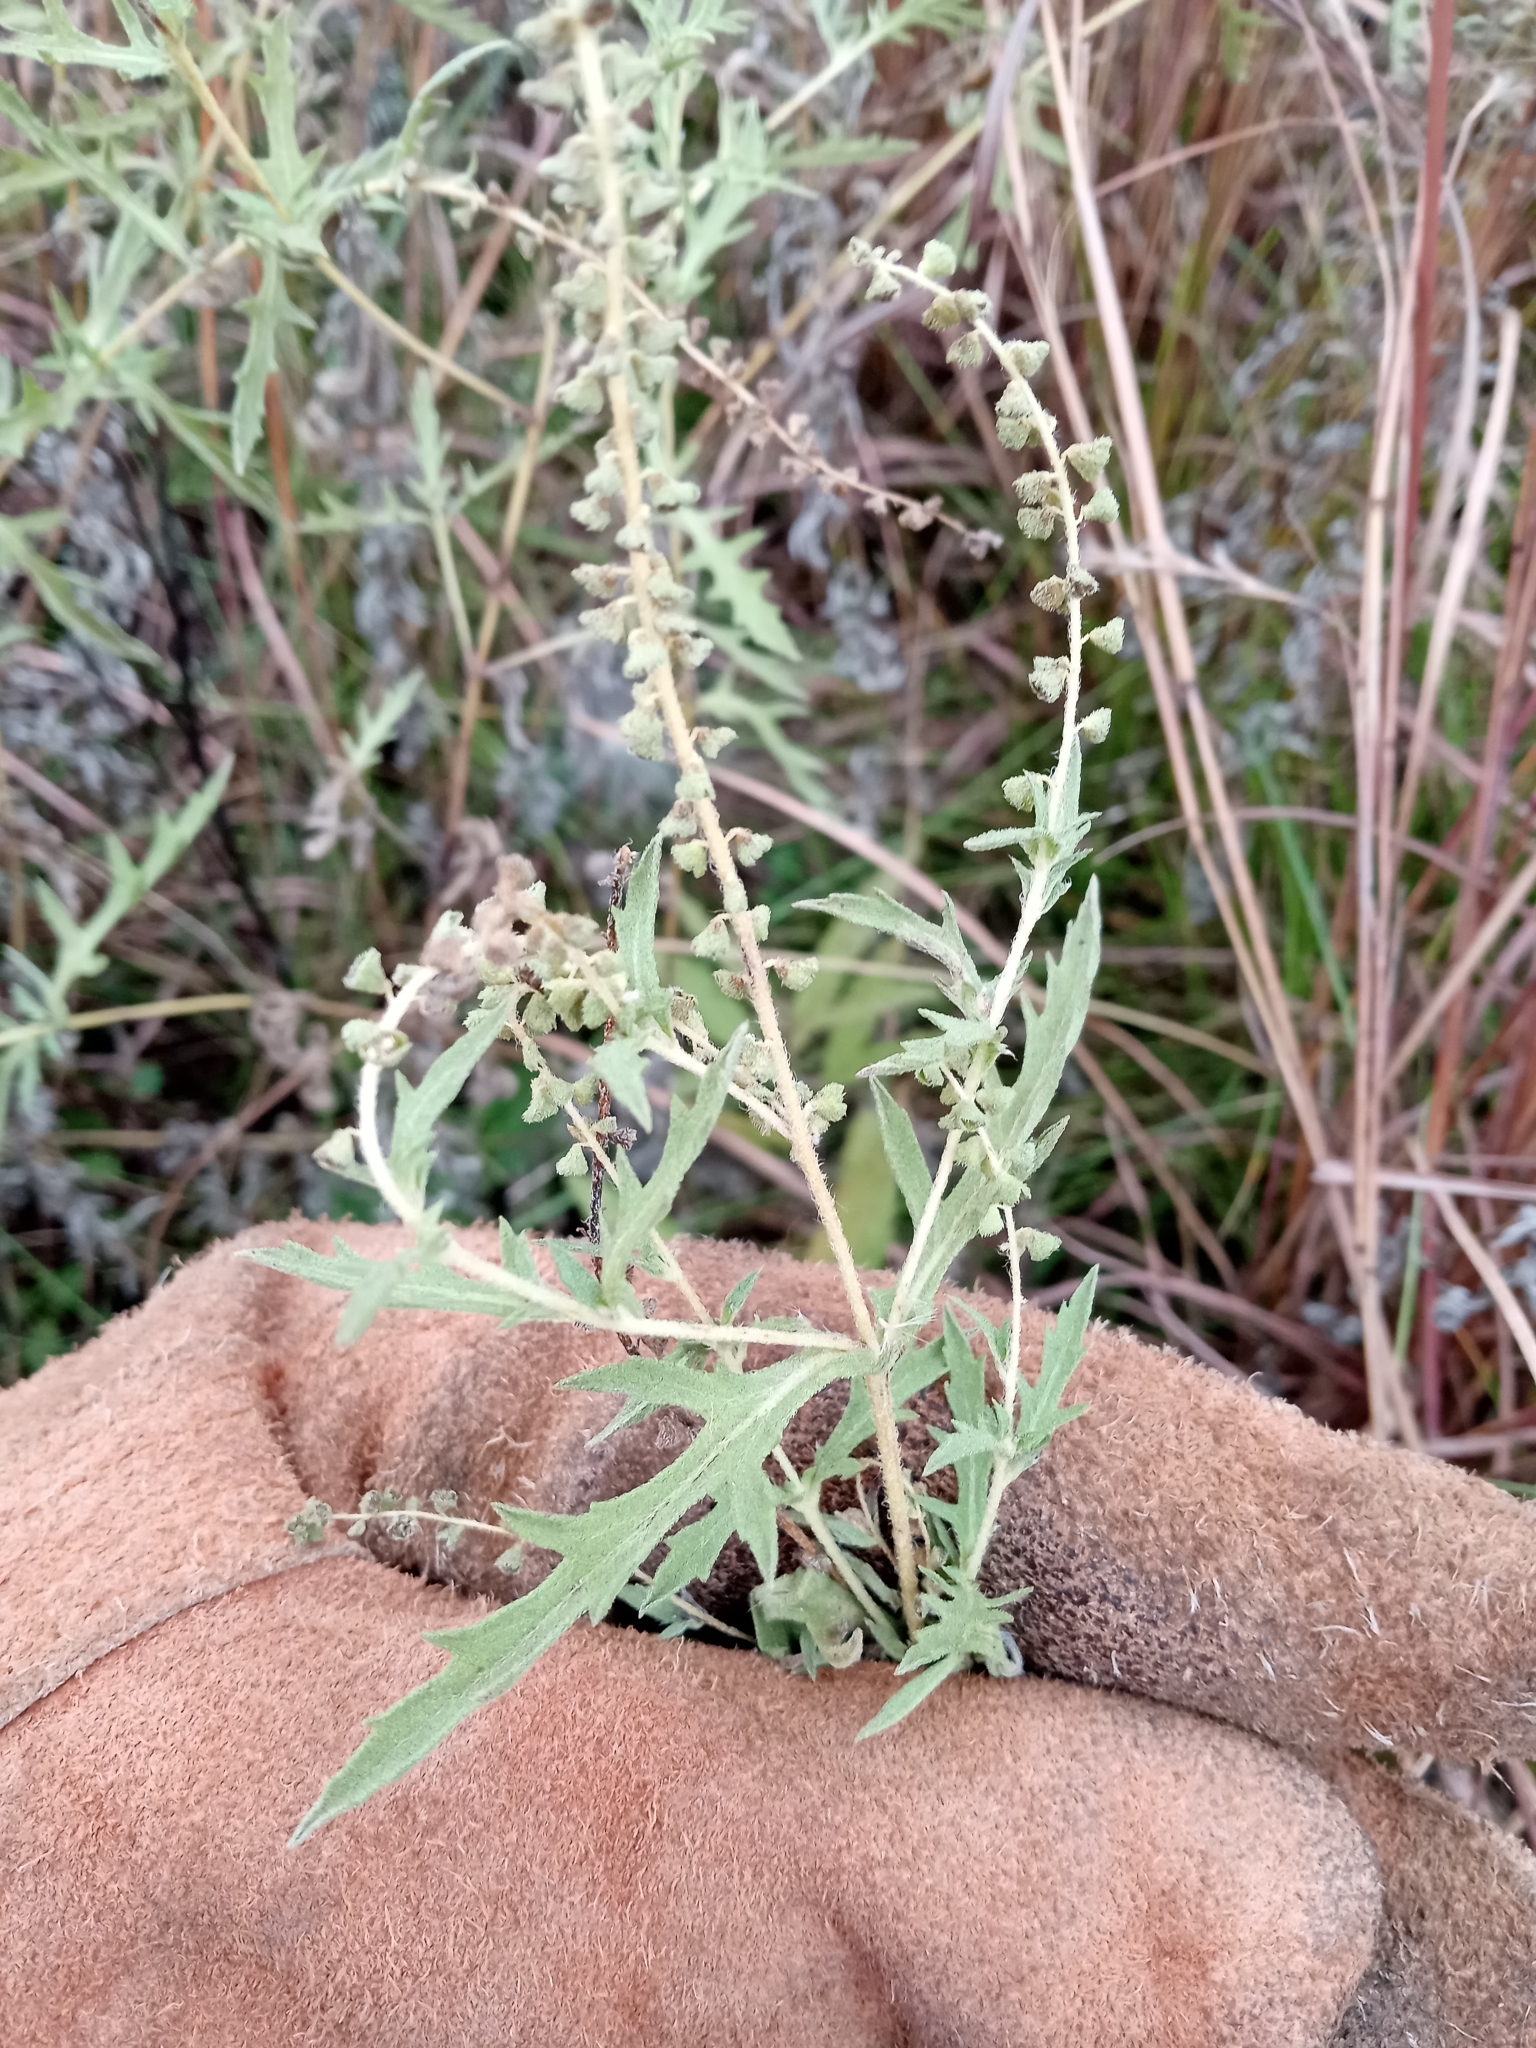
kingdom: Plantae
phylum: Tracheophyta
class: Magnoliopsida
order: Asterales
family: Asteraceae
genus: Ambrosia
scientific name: Ambrosia psilostachya
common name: Perennial ragweed
